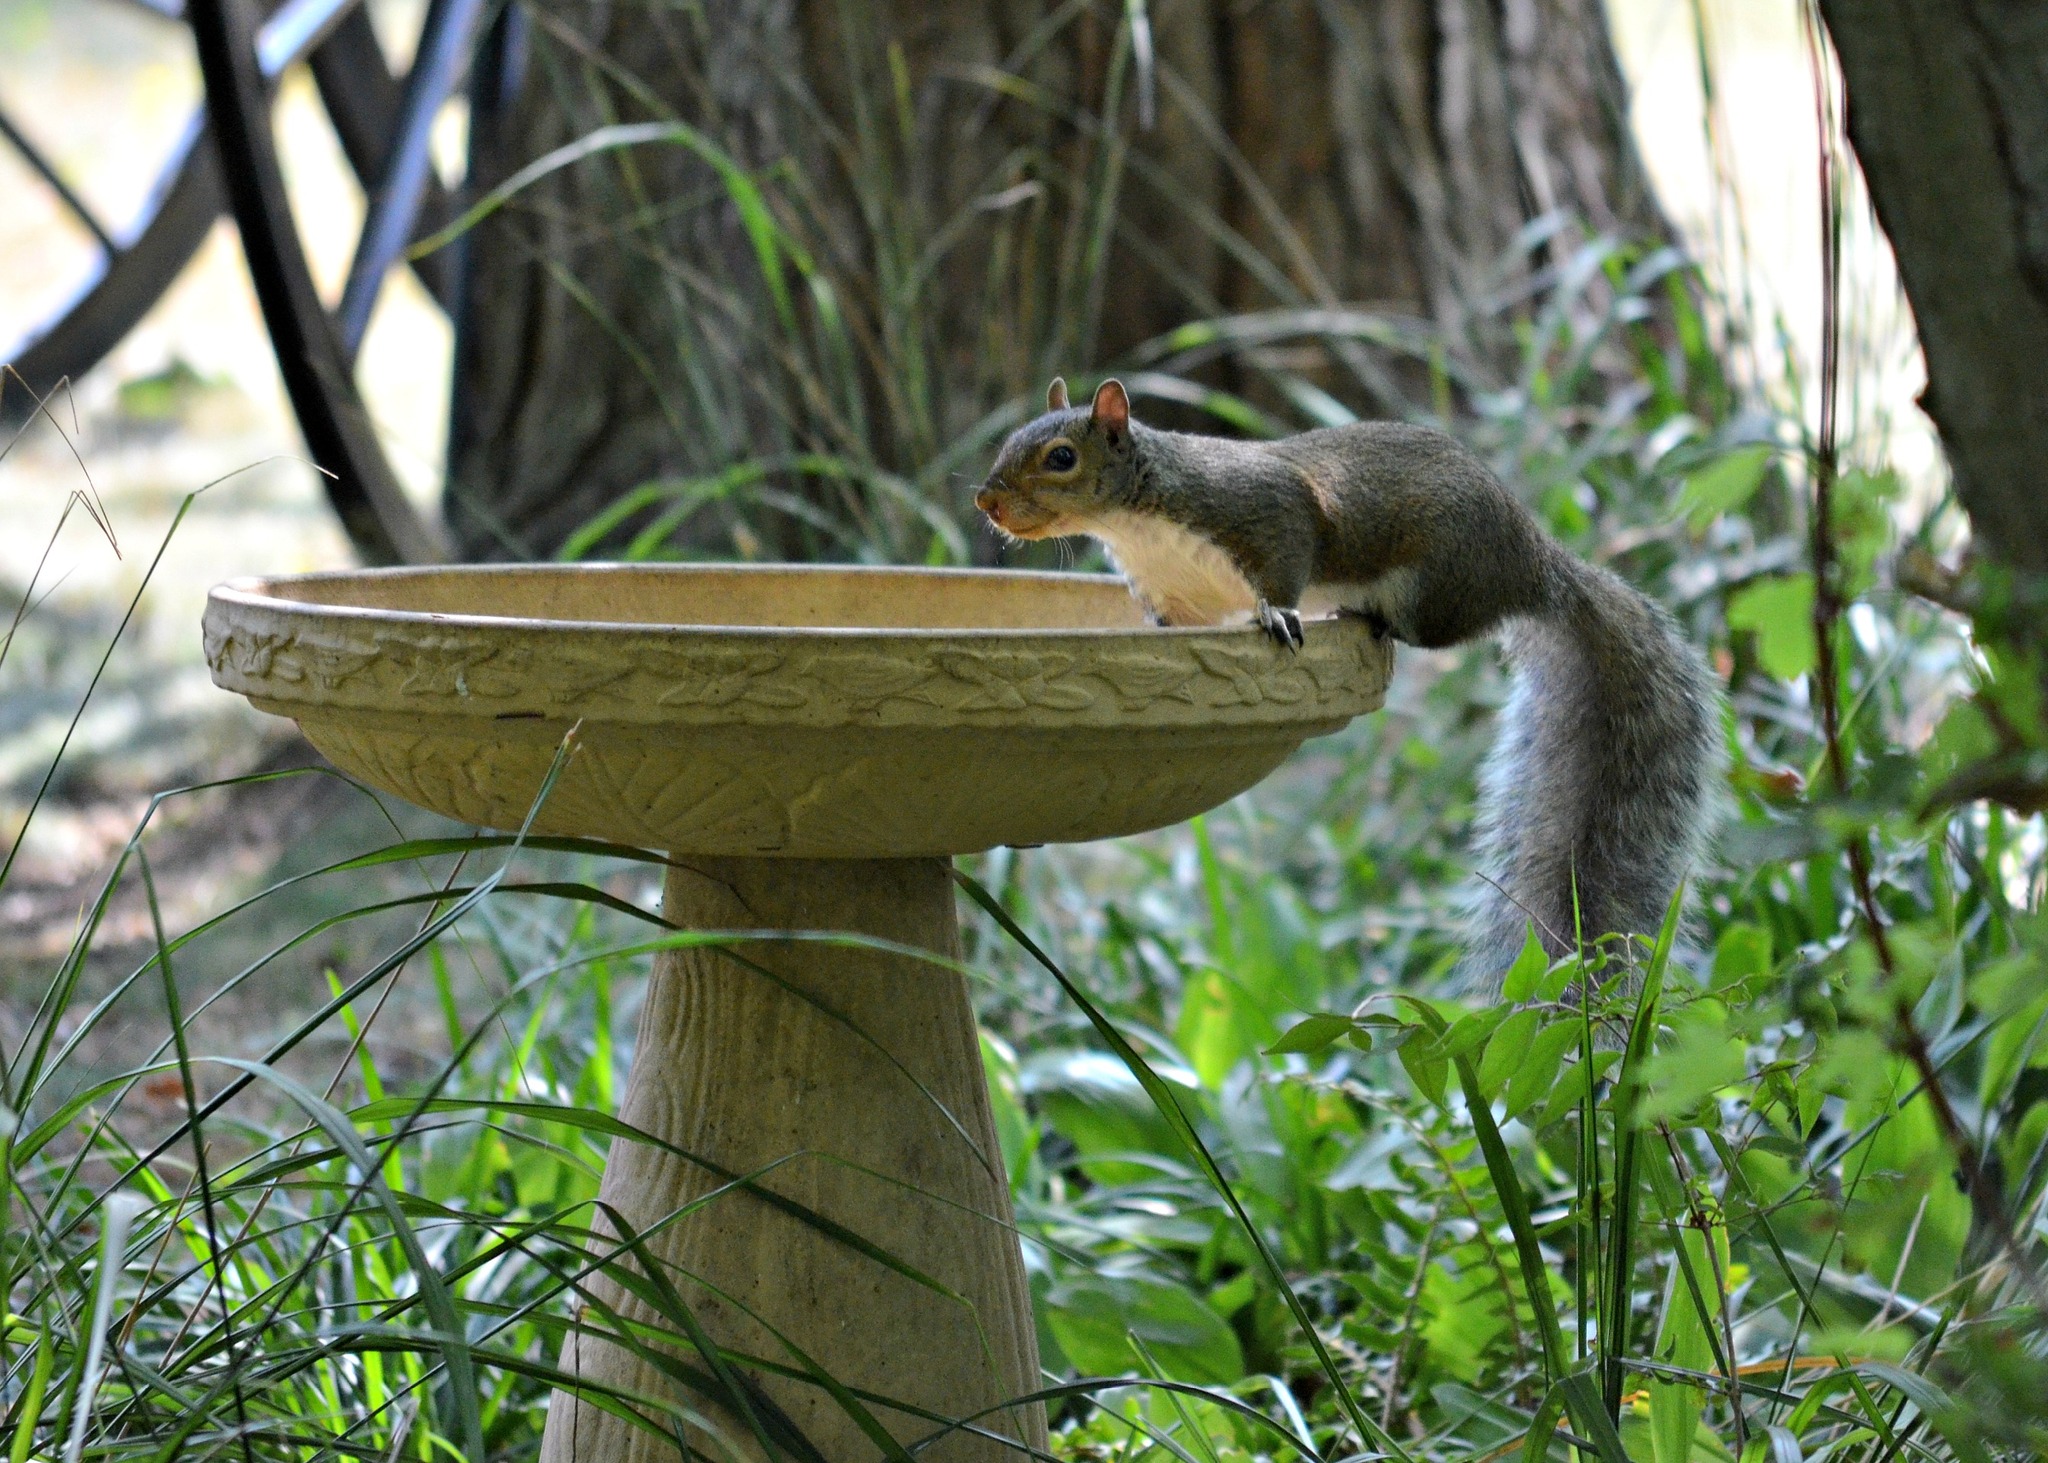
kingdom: Animalia
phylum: Chordata
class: Mammalia
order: Rodentia
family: Sciuridae
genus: Sciurus
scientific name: Sciurus carolinensis
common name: Eastern gray squirrel
